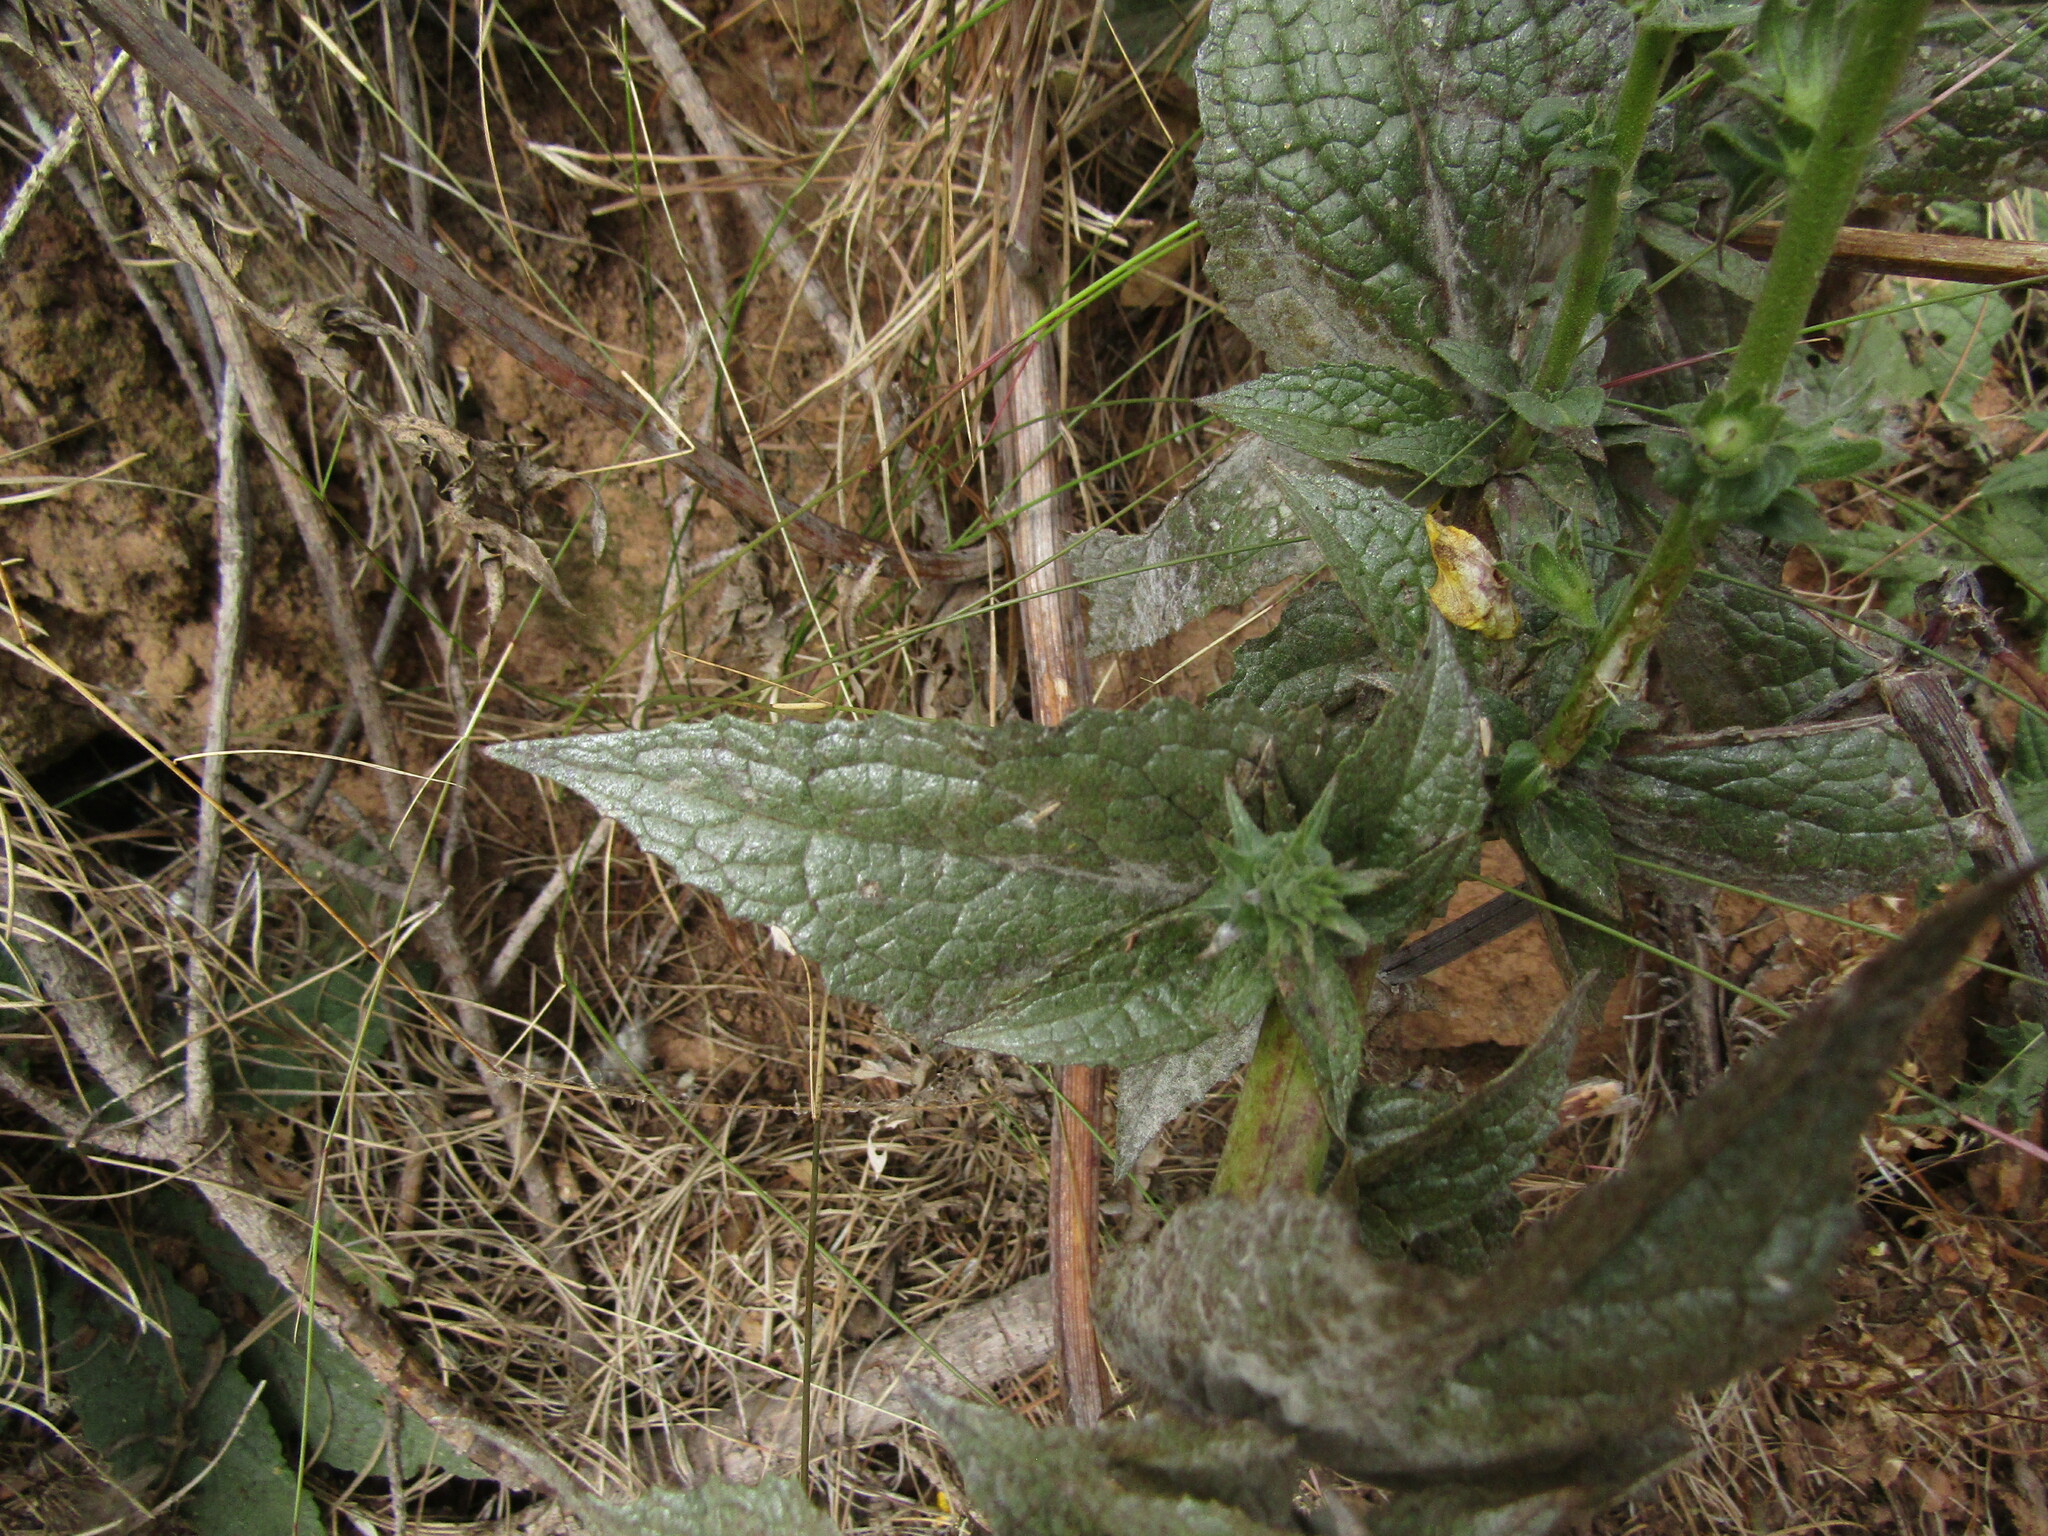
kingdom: Plantae
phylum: Tracheophyta
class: Magnoliopsida
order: Lamiales
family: Scrophulariaceae
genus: Verbascum
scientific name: Verbascum virgatum
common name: Twiggy mullein
